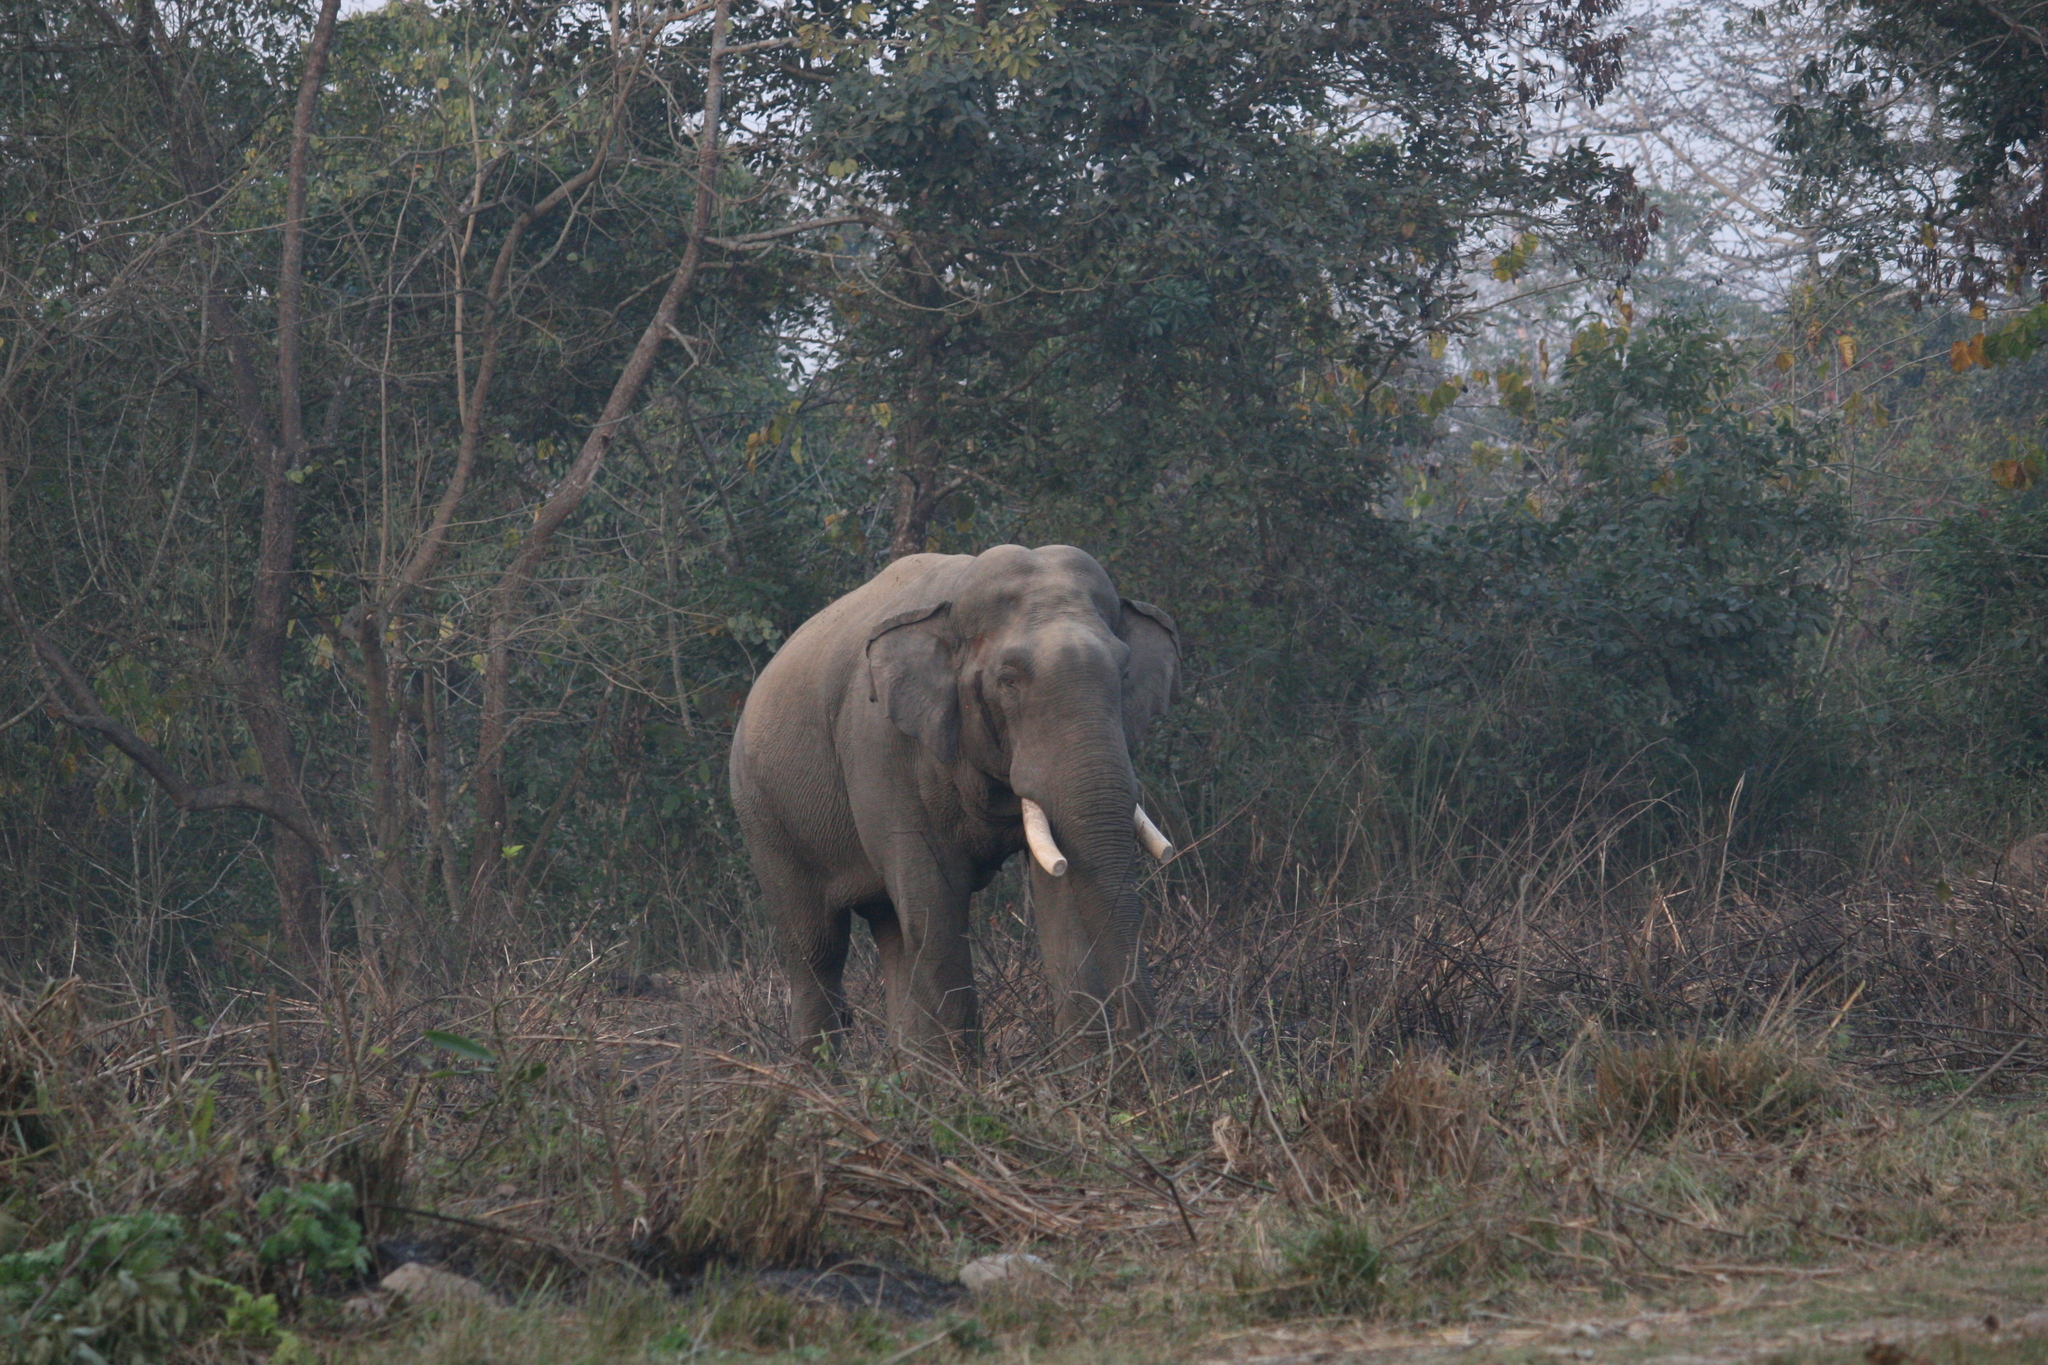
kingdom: Animalia
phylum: Chordata
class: Mammalia
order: Proboscidea
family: Elephantidae
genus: Elephas
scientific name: Elephas maximus
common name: Asian elephant
